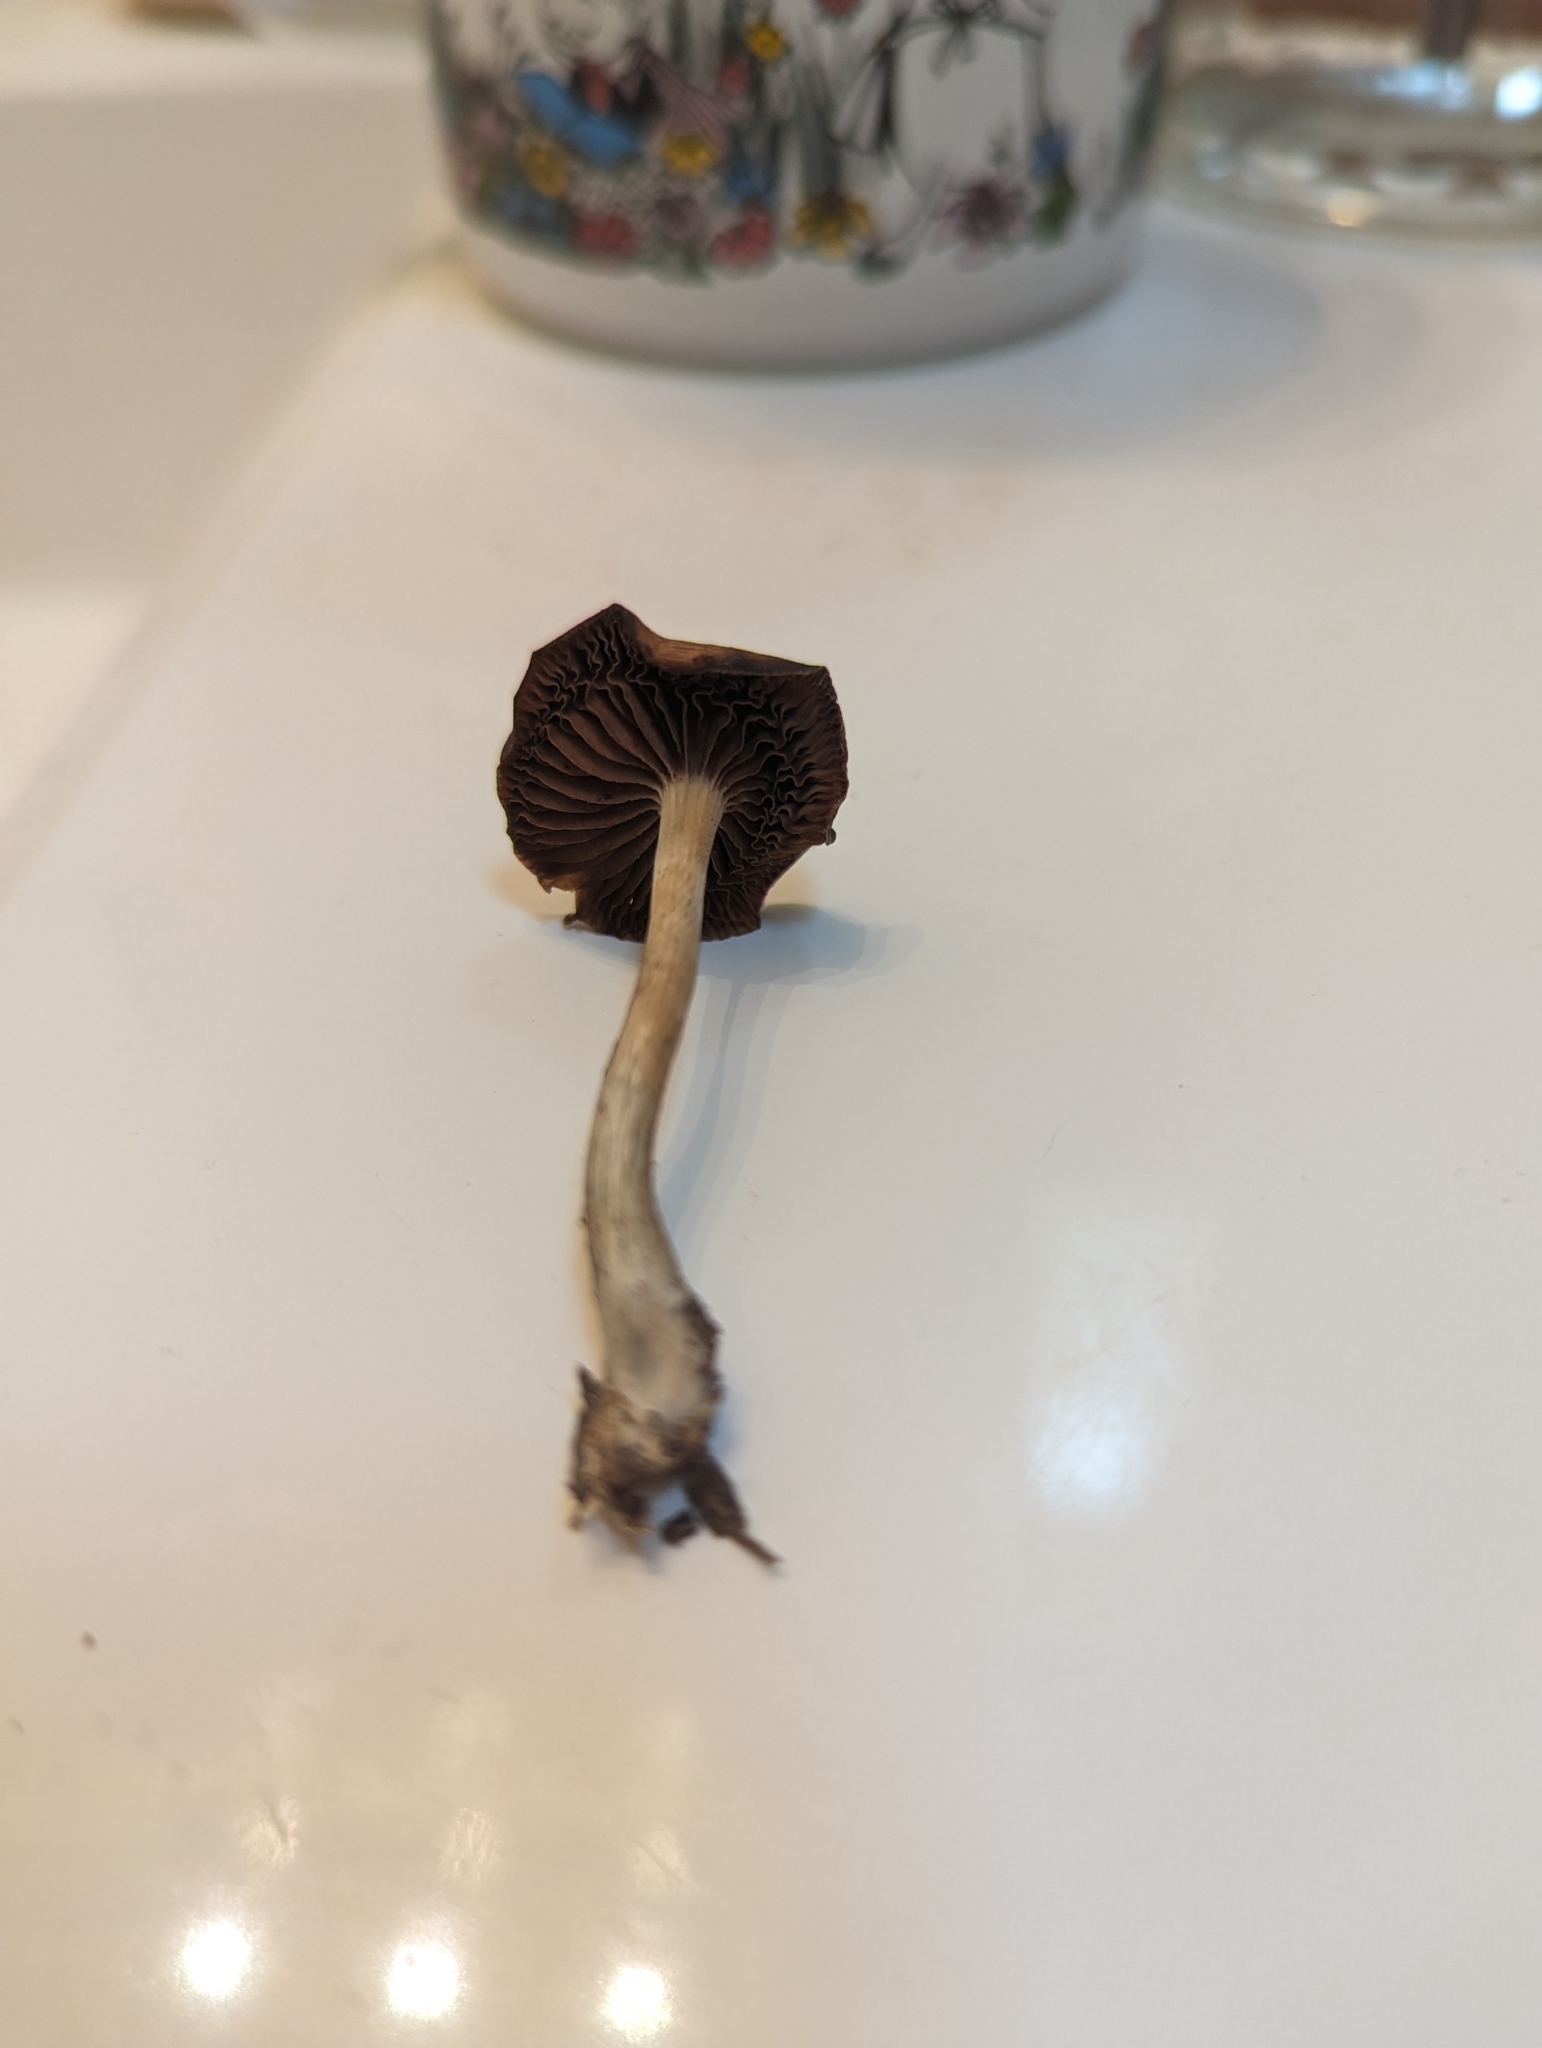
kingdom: Fungi
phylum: Basidiomycota
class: Agaricomycetes
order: Agaricales
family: Hymenogastraceae
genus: Psilocybe
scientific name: Psilocybe cyanescens
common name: Blueleg brownie
